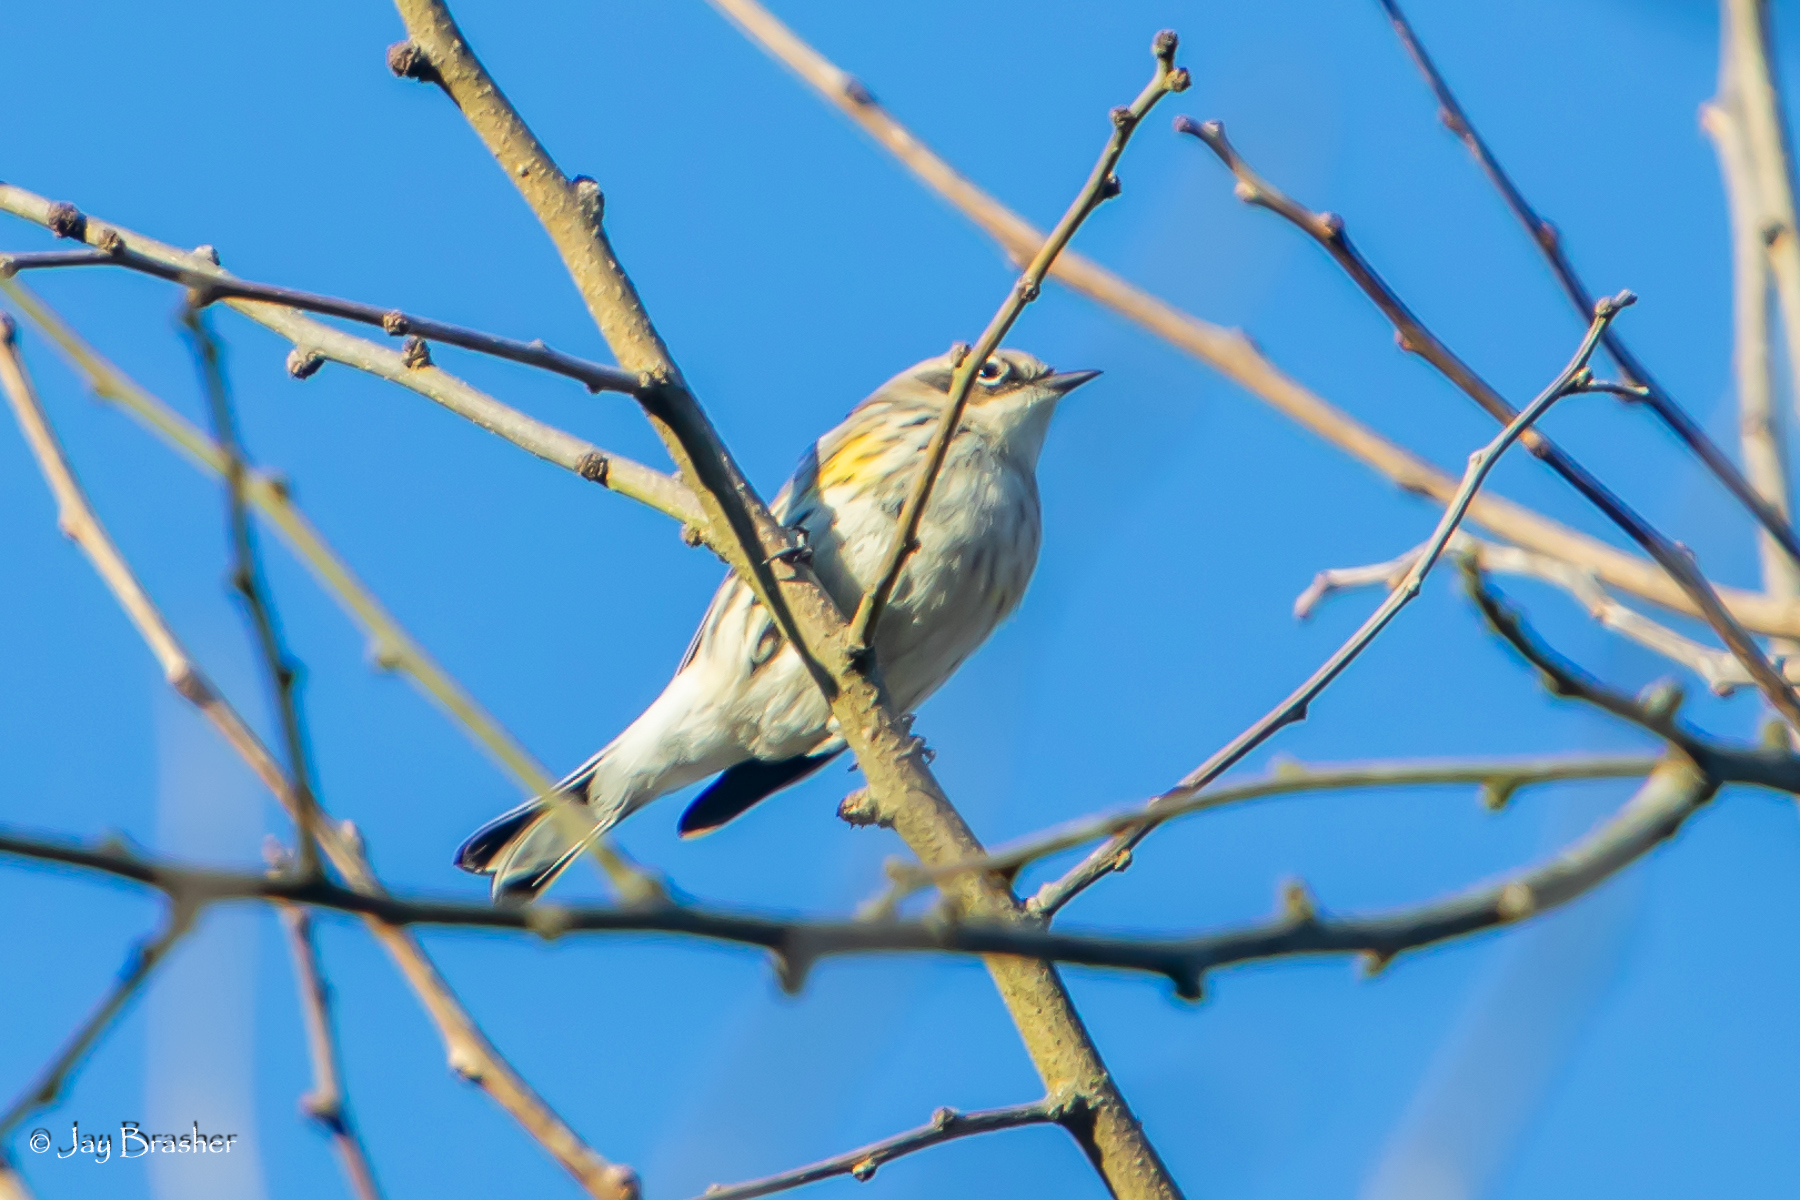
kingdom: Animalia
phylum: Chordata
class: Aves
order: Passeriformes
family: Parulidae
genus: Setophaga
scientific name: Setophaga coronata
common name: Myrtle warbler
